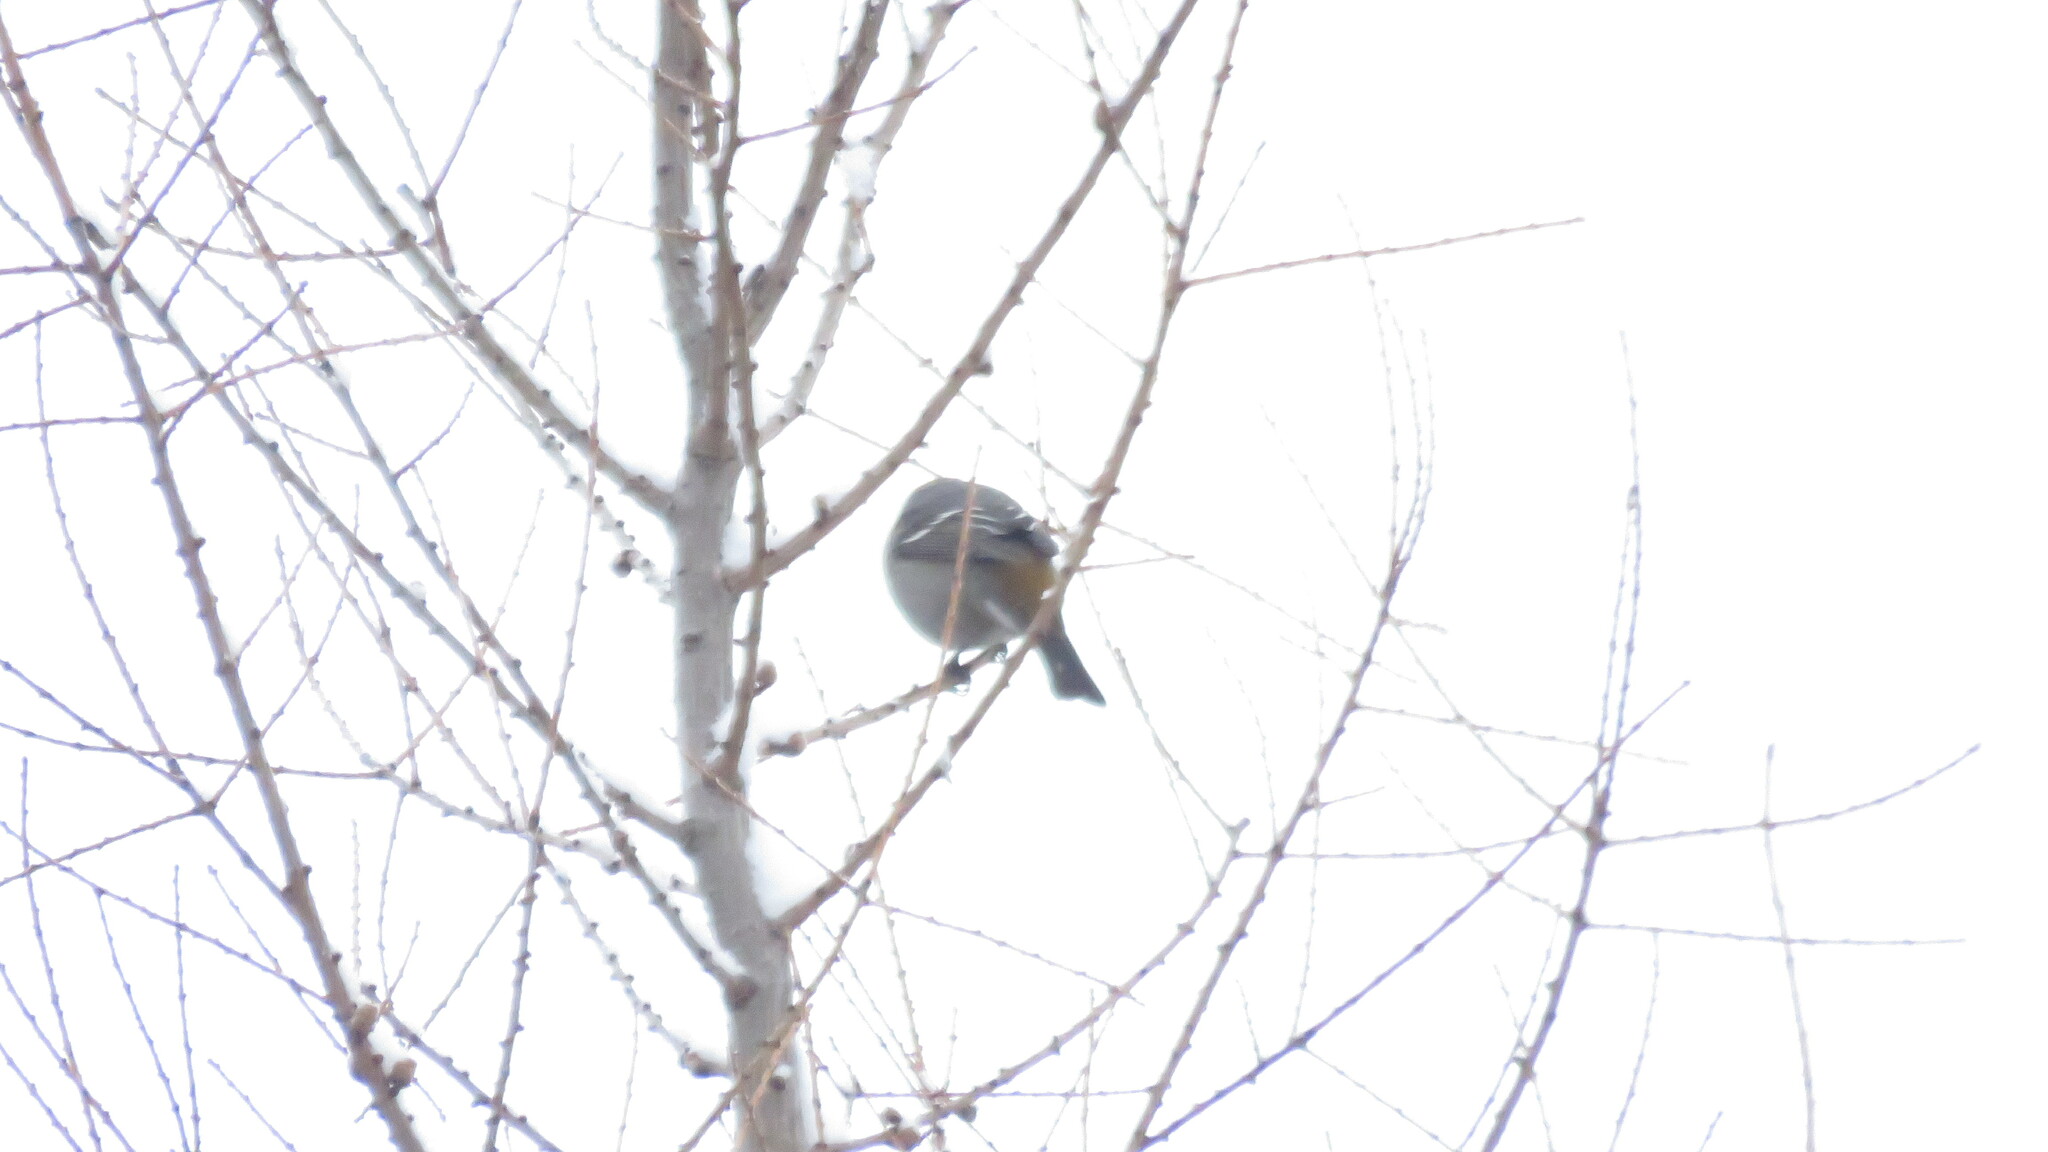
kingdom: Animalia
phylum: Chordata
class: Aves
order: Passeriformes
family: Fringillidae
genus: Pinicola
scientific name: Pinicola enucleator
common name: Pine grosbeak
